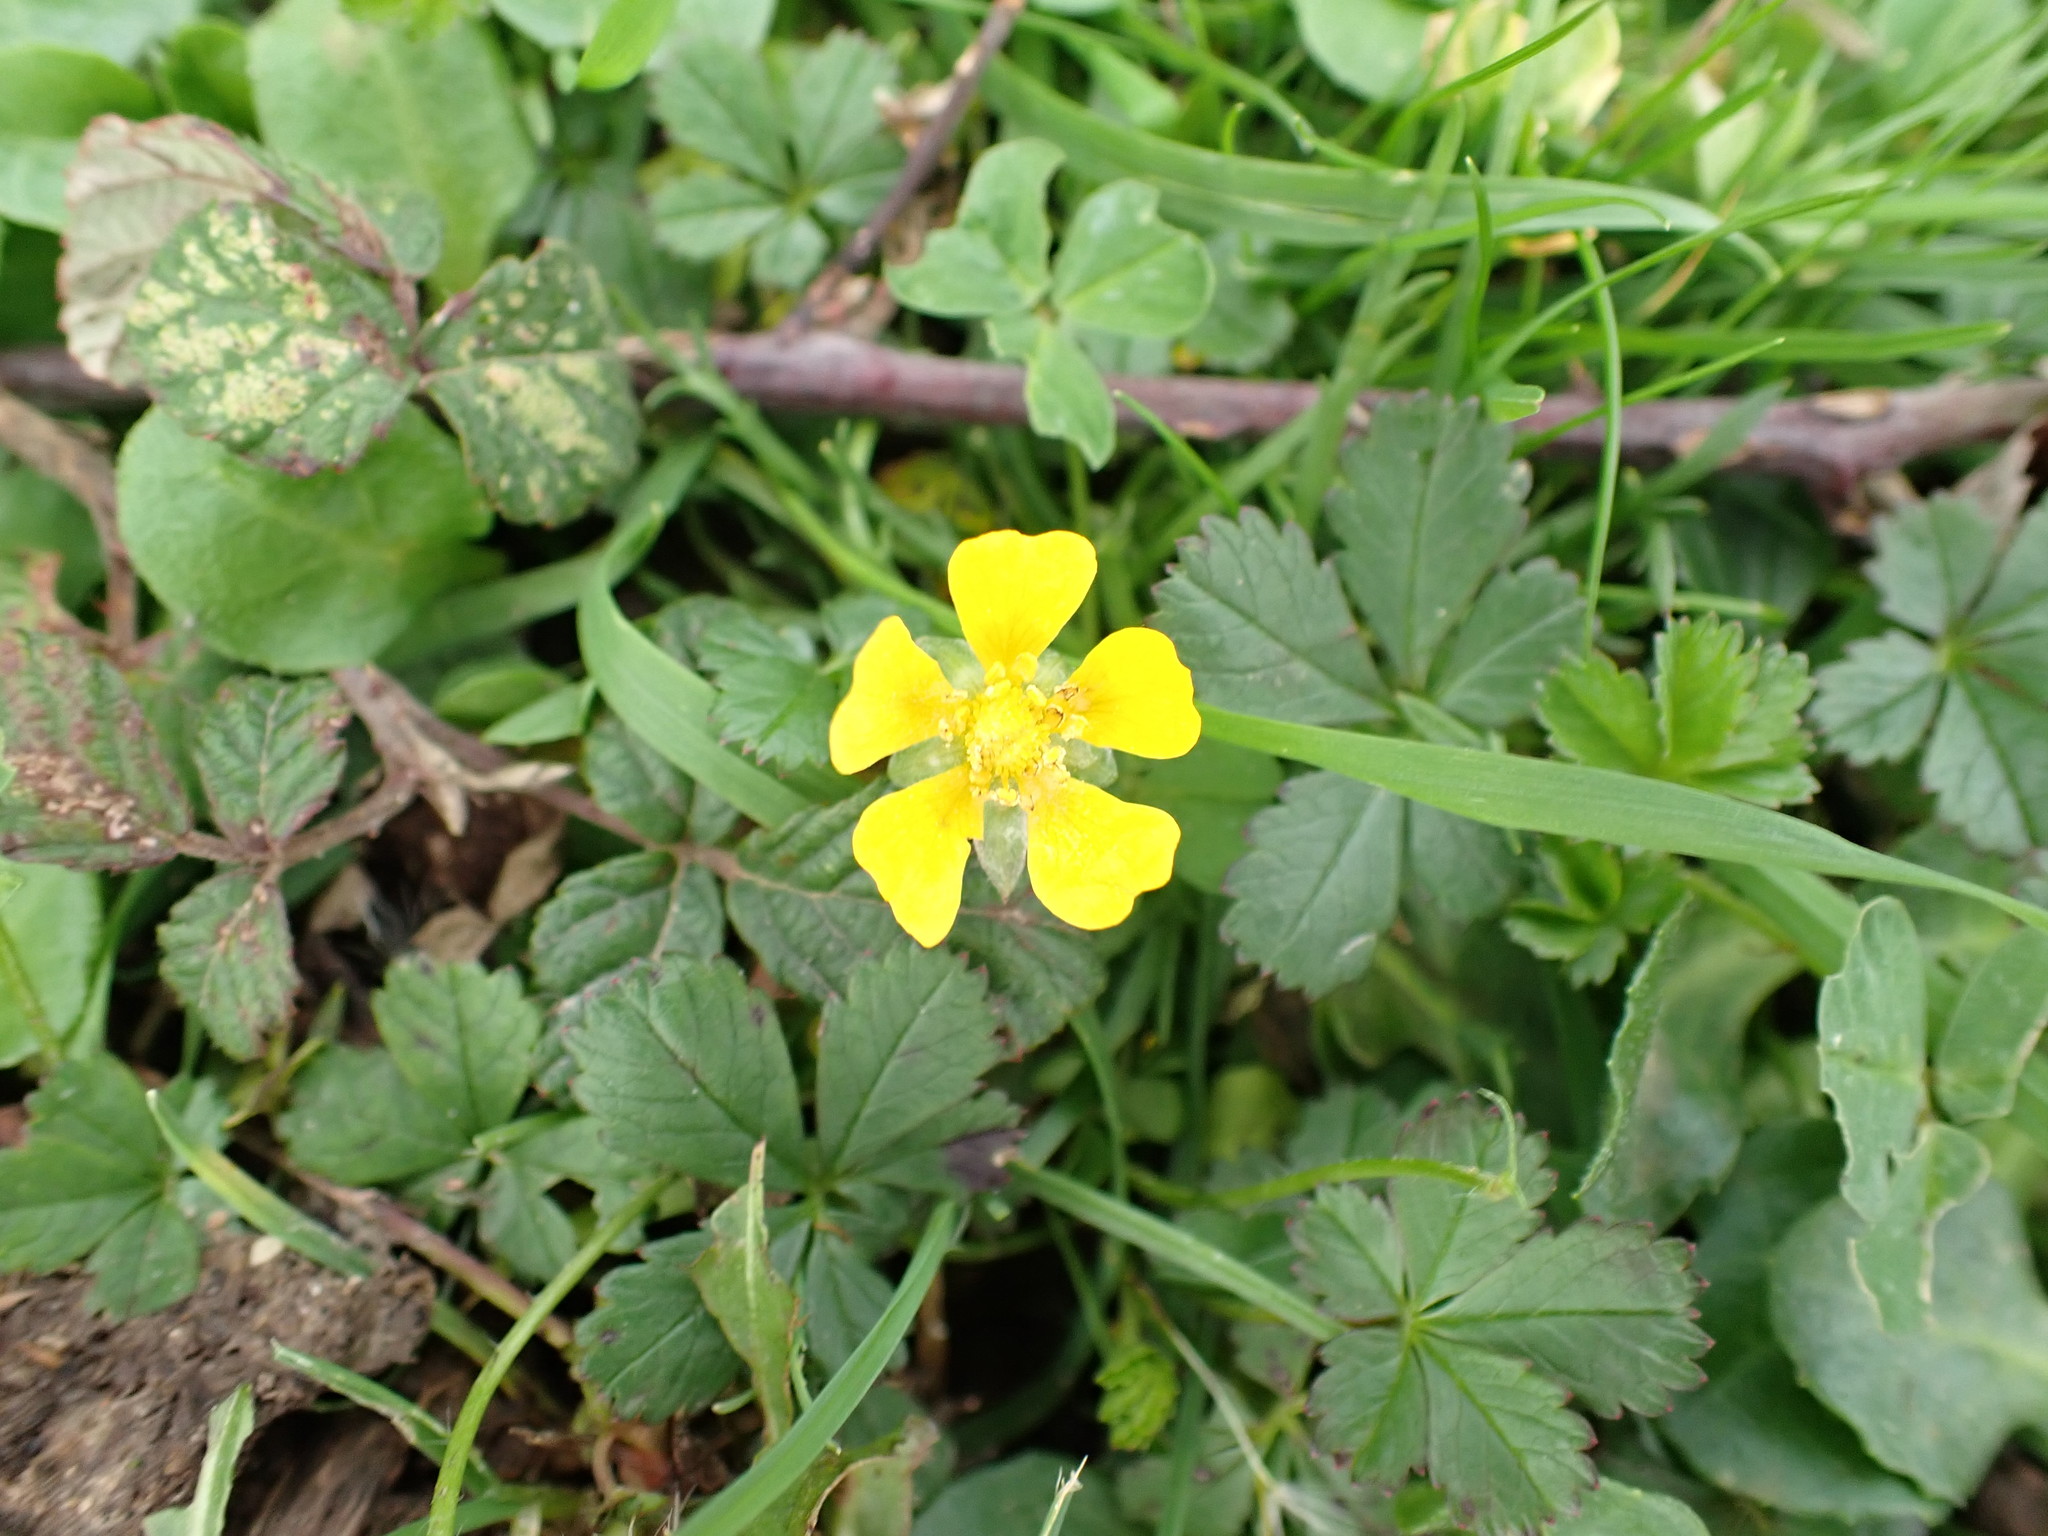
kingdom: Plantae
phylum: Tracheophyta
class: Magnoliopsida
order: Rosales
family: Rosaceae
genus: Potentilla
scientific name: Potentilla reptans
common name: Creeping cinquefoil
